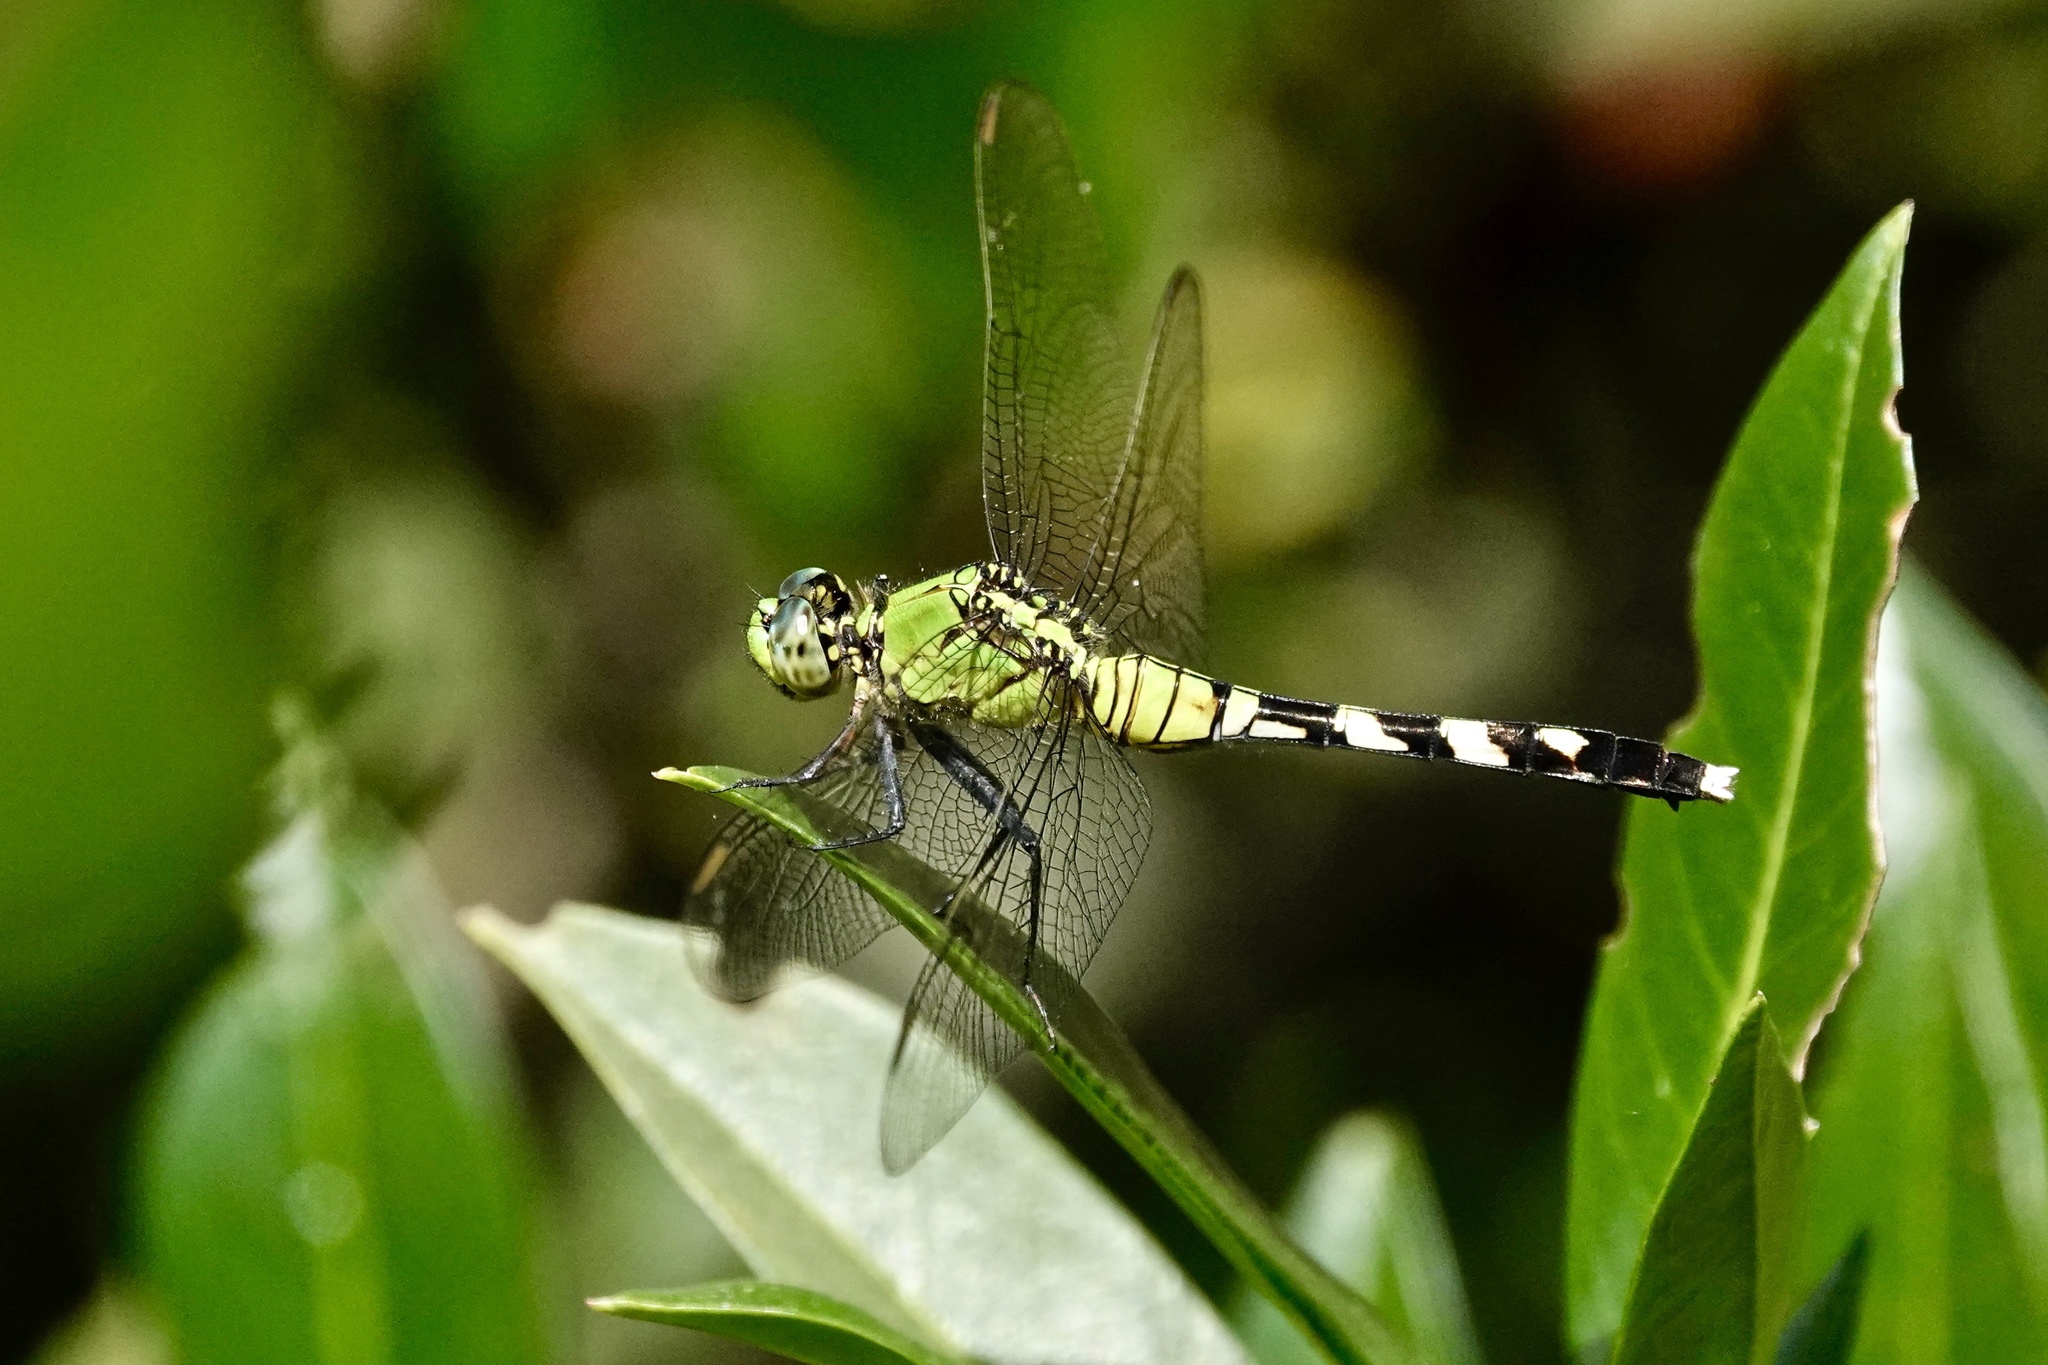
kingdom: Animalia
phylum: Arthropoda
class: Insecta
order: Odonata
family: Libellulidae
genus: Erythemis
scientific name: Erythemis simplicicollis
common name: Eastern pondhawk
